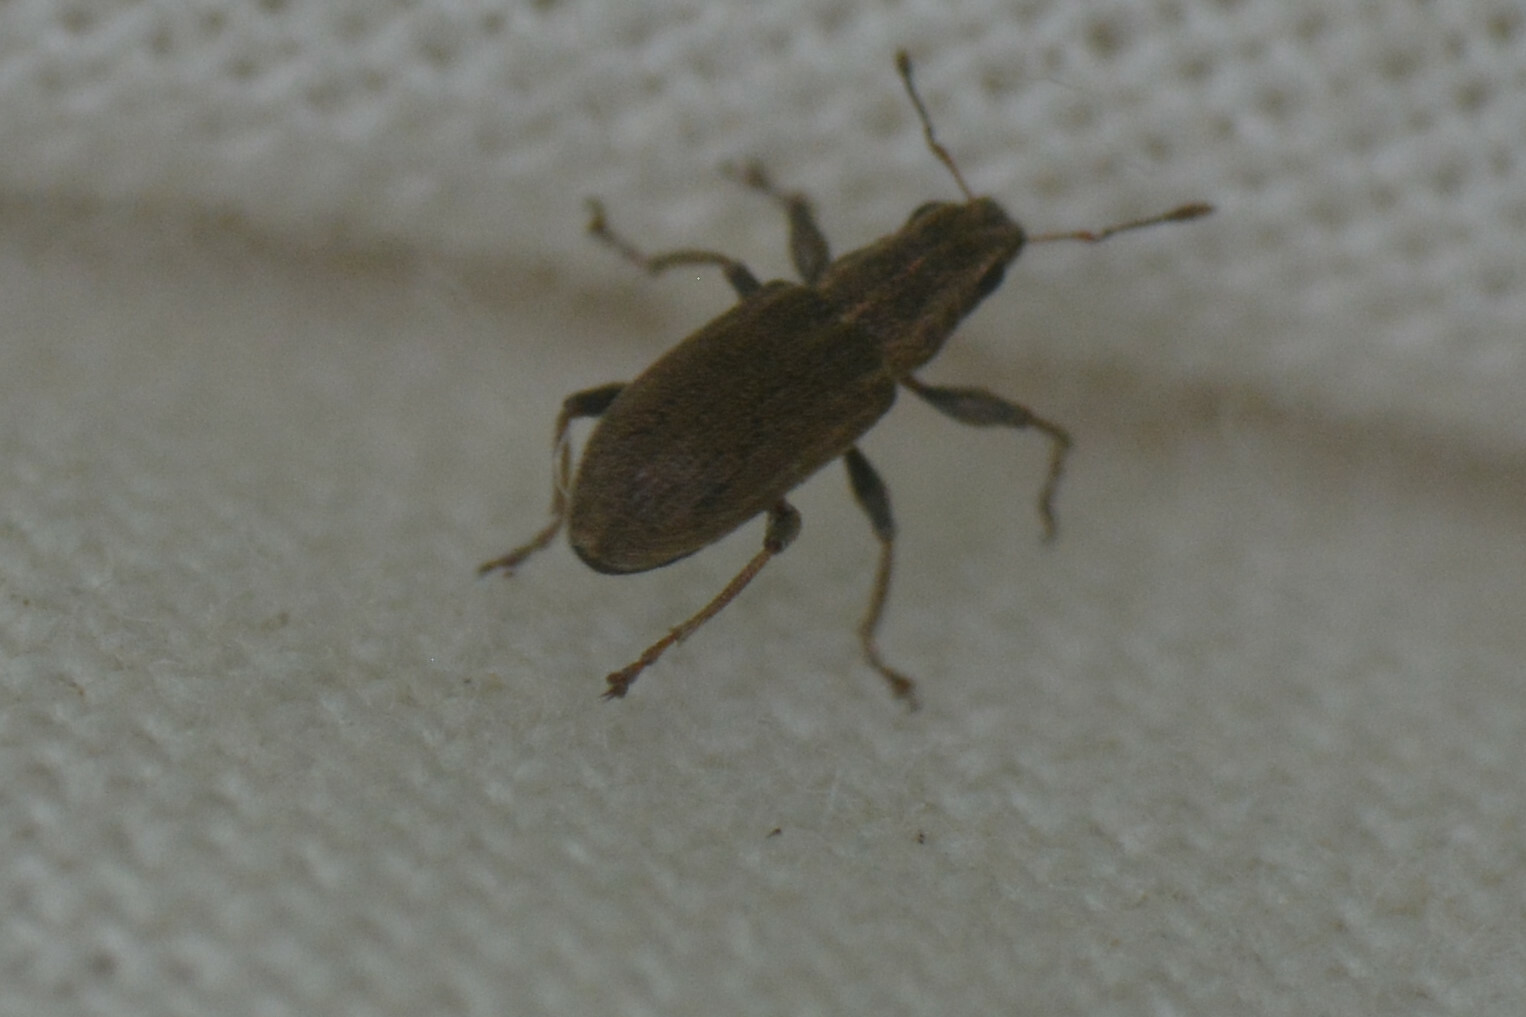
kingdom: Animalia
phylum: Arthropoda
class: Insecta
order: Coleoptera
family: Curculionidae
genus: Sitona
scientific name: Sitona lineatus
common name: Weevil
